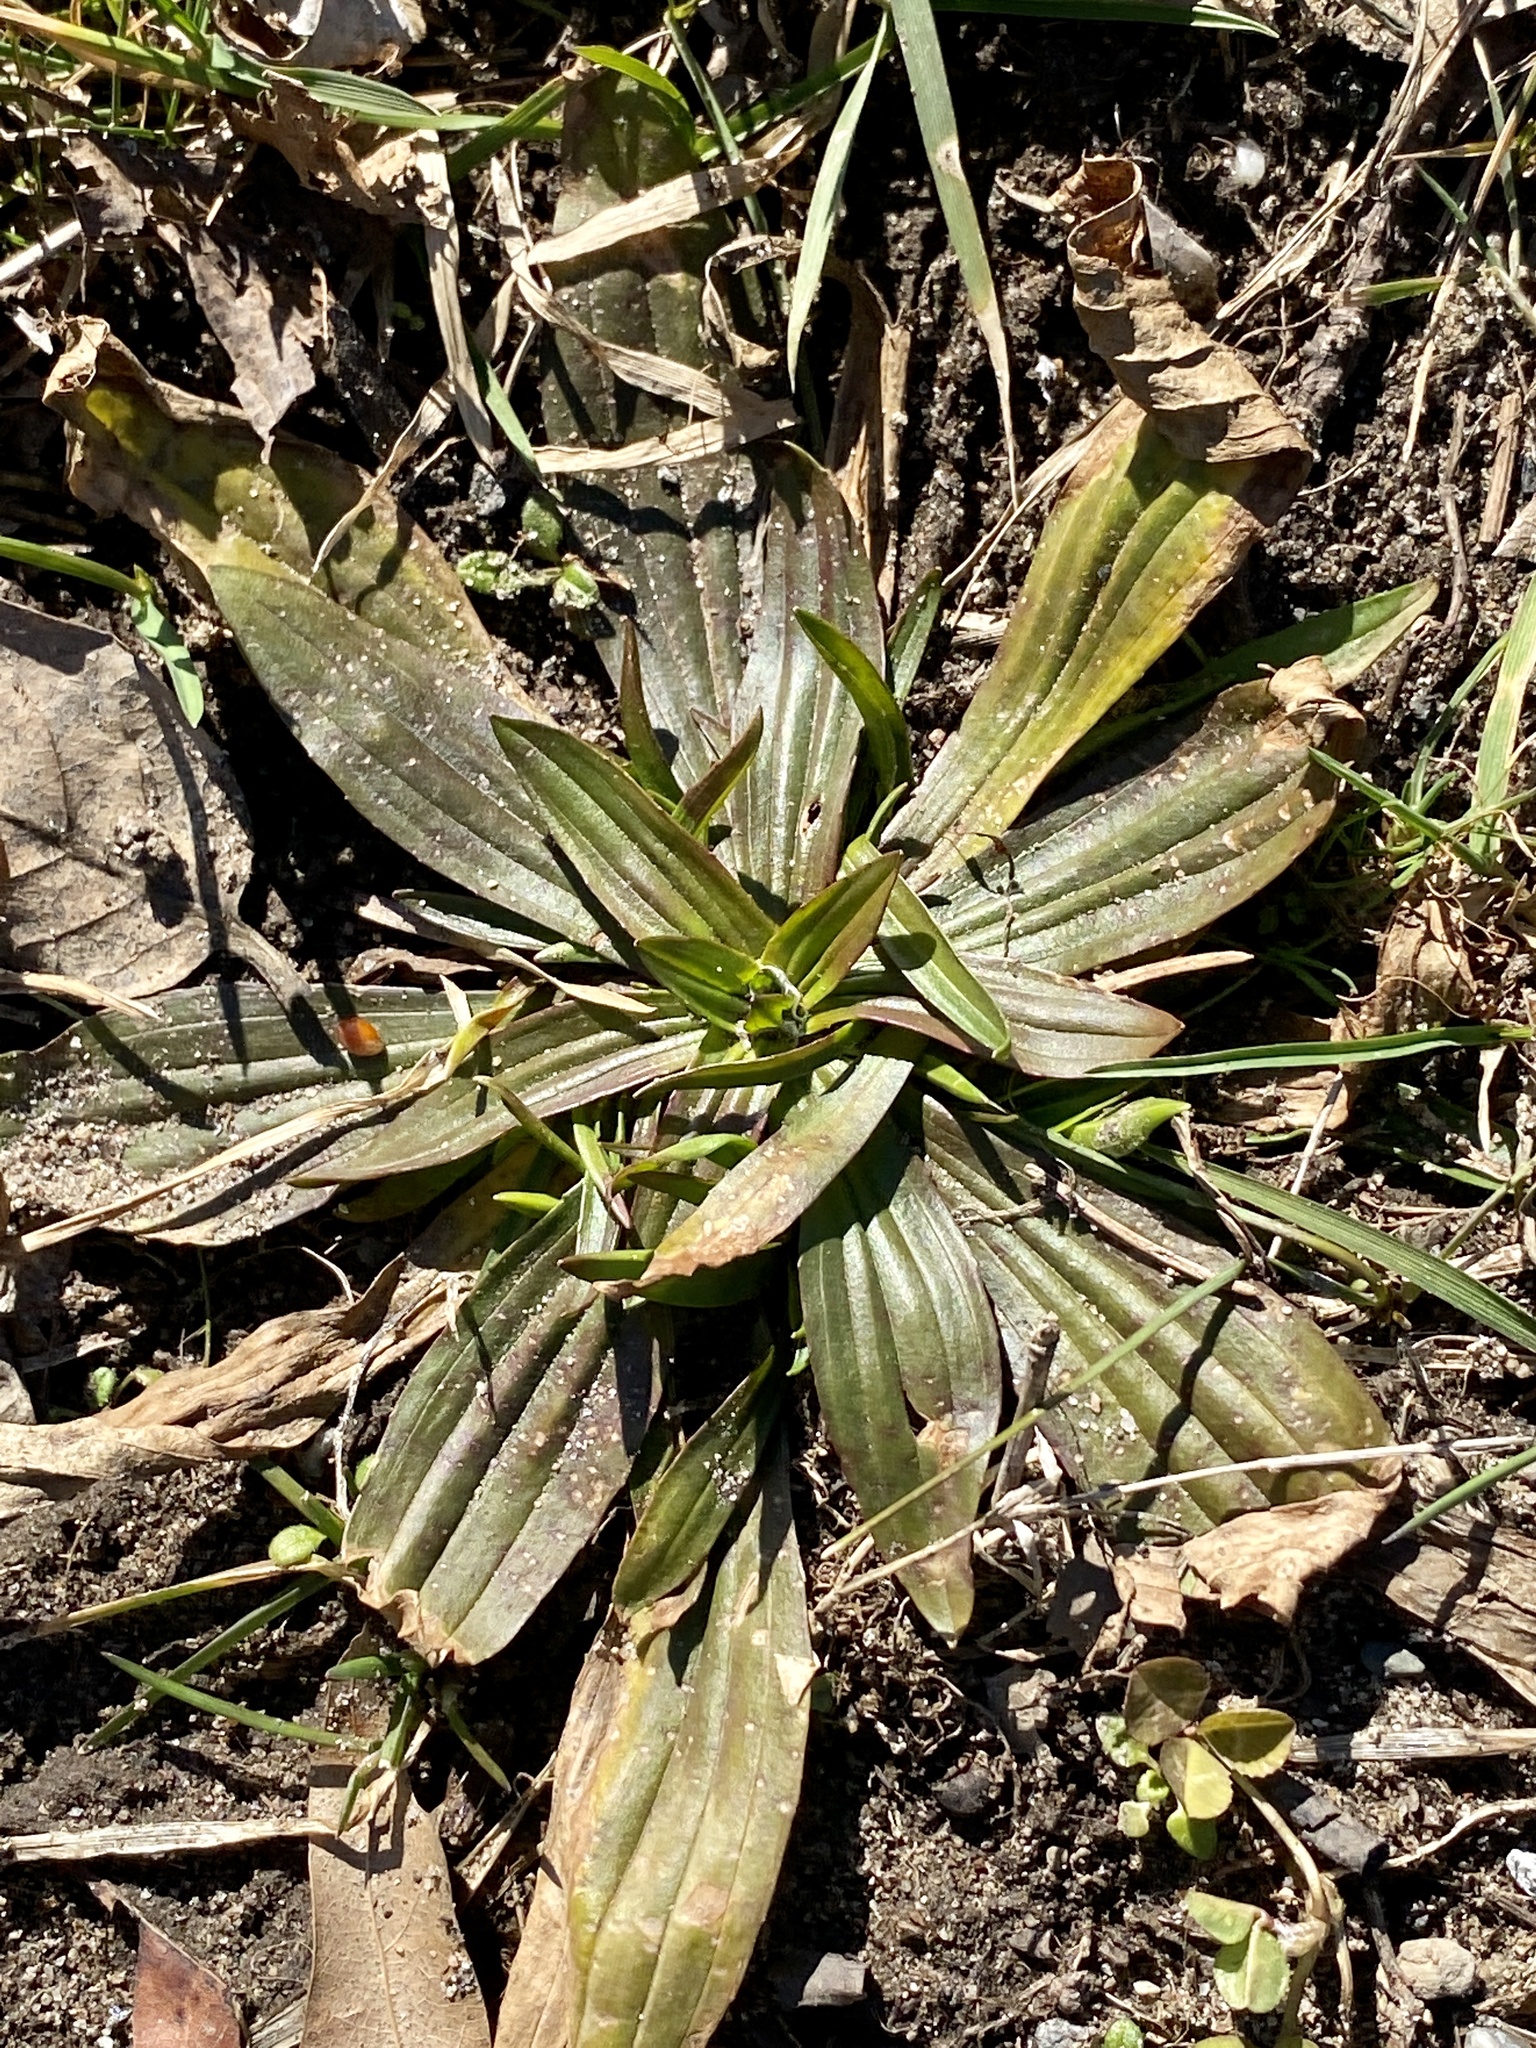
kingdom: Plantae
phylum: Tracheophyta
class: Magnoliopsida
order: Lamiales
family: Plantaginaceae
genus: Plantago
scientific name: Plantago lanceolata
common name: Ribwort plantain
